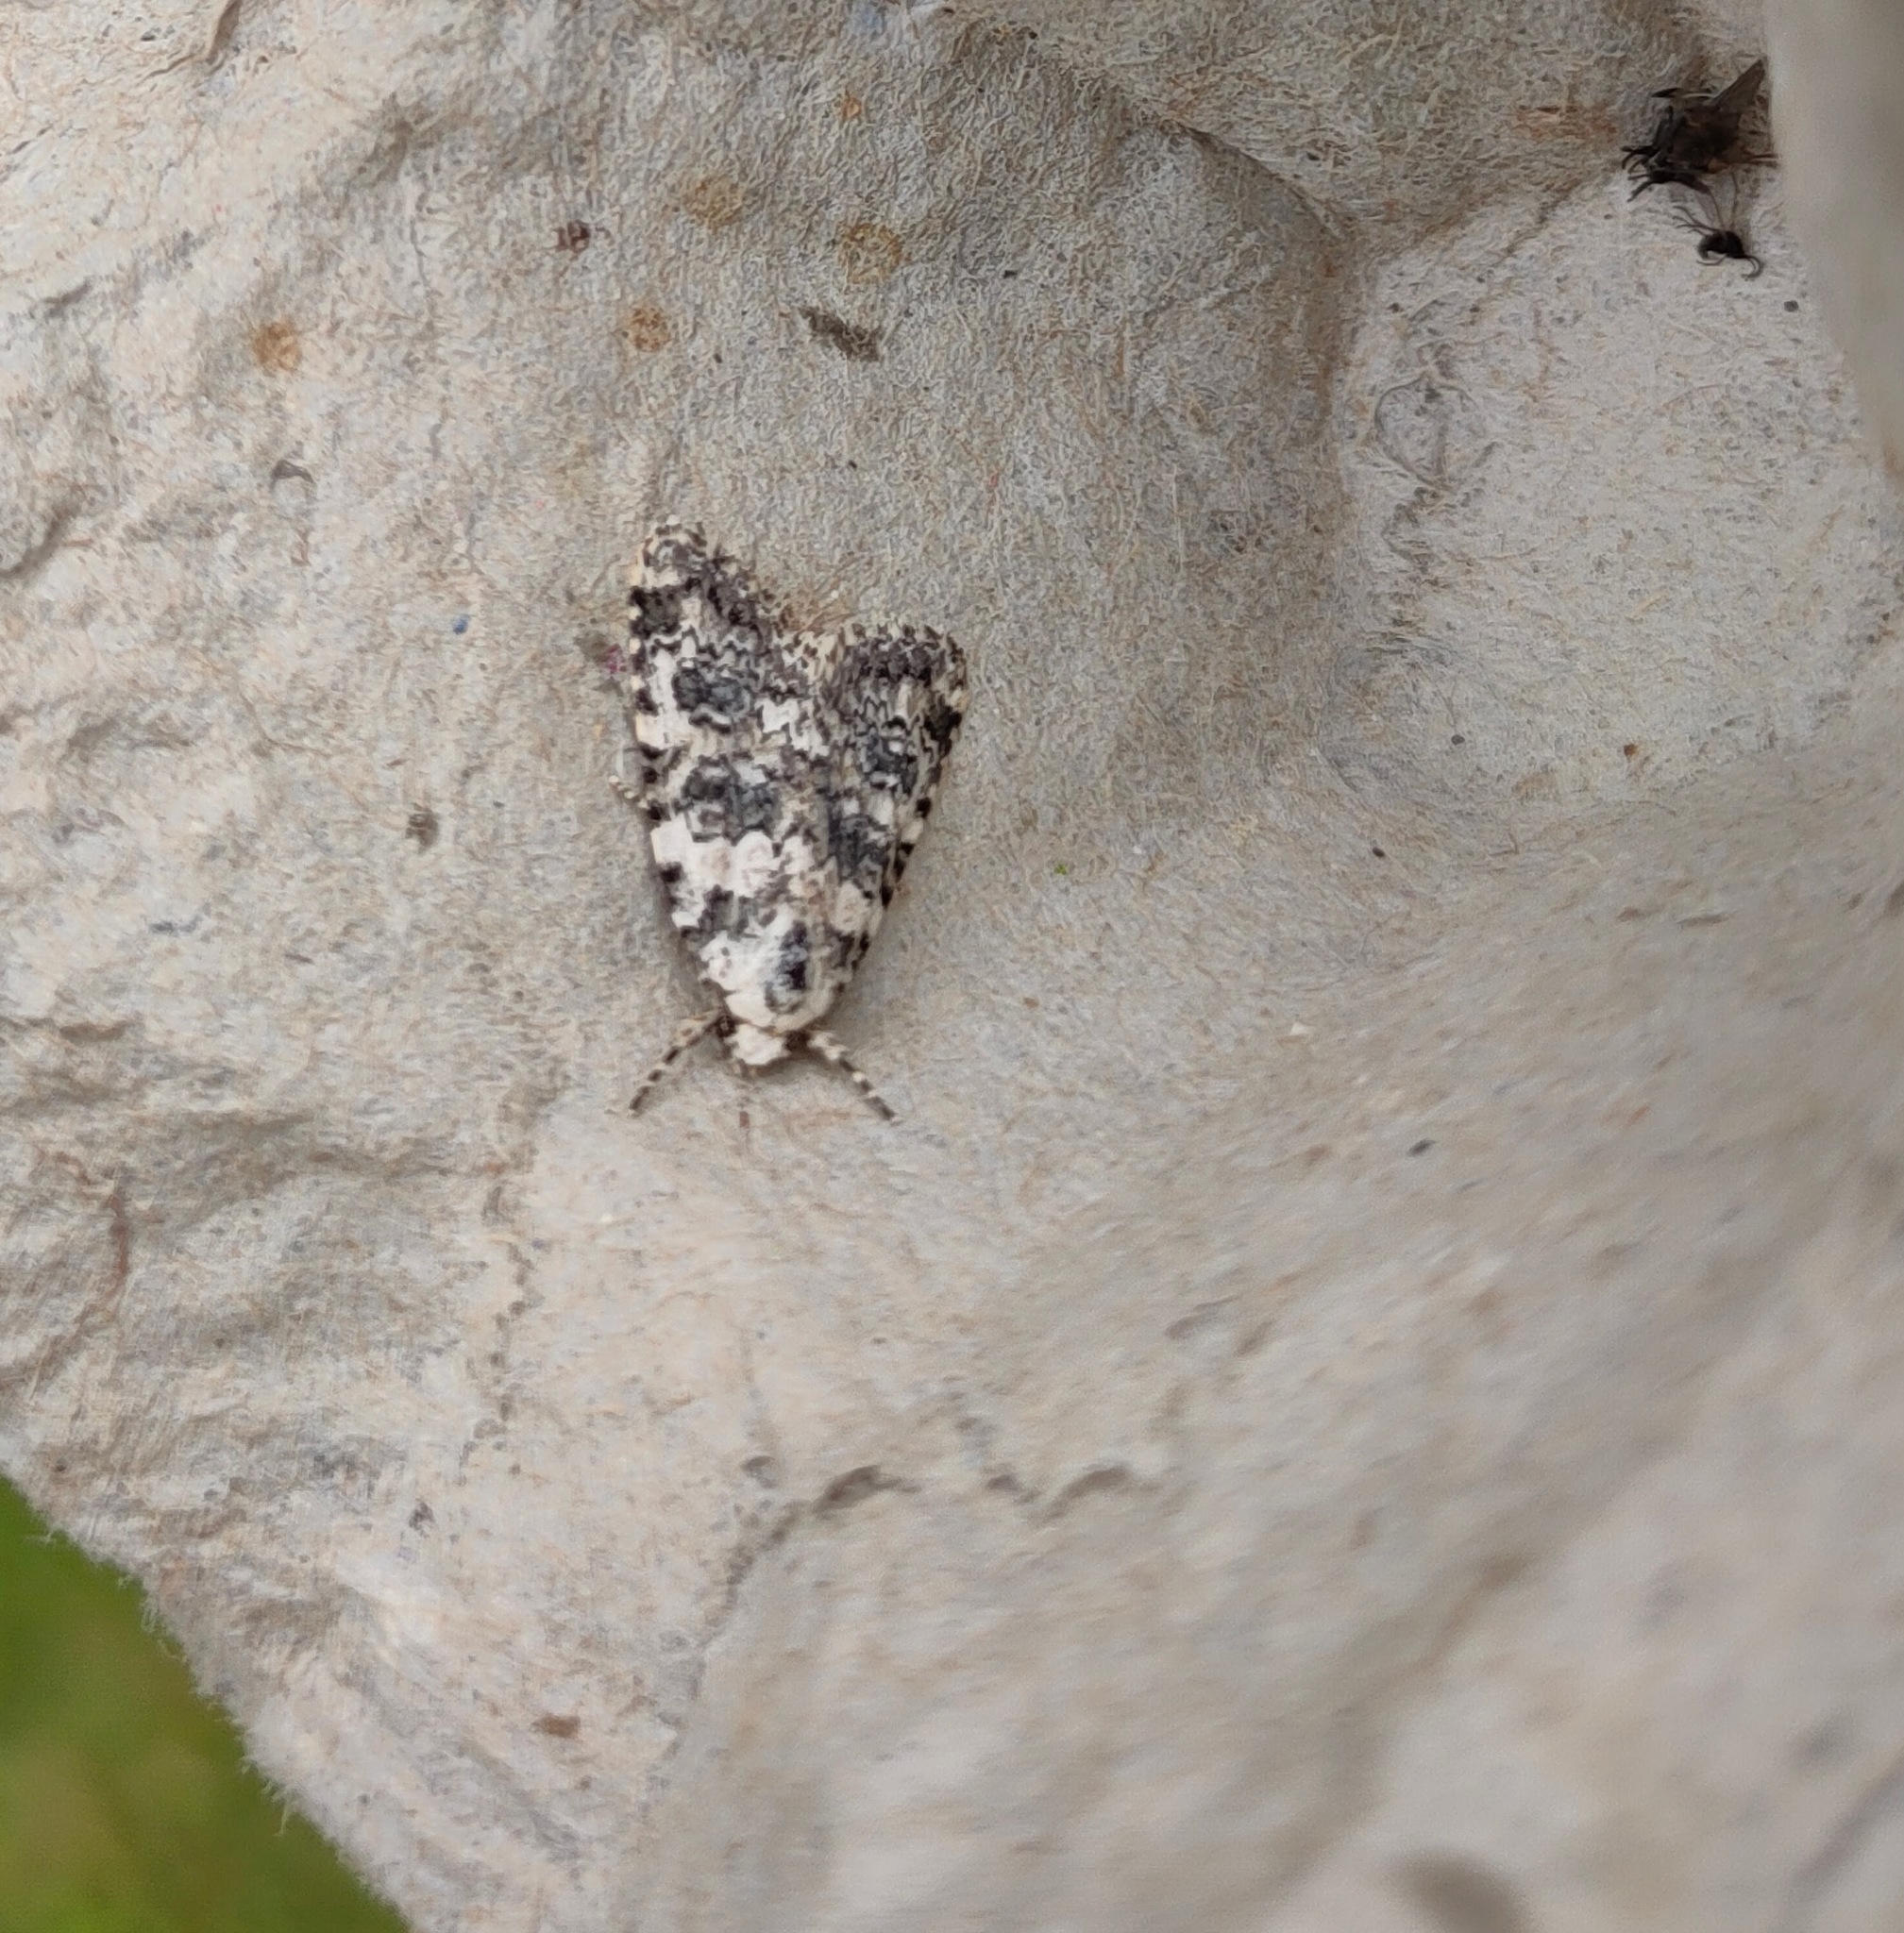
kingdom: Animalia
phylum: Arthropoda
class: Insecta
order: Lepidoptera
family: Noctuidae
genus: Bryophila
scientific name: Bryophila domestica
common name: Marbled beauty
